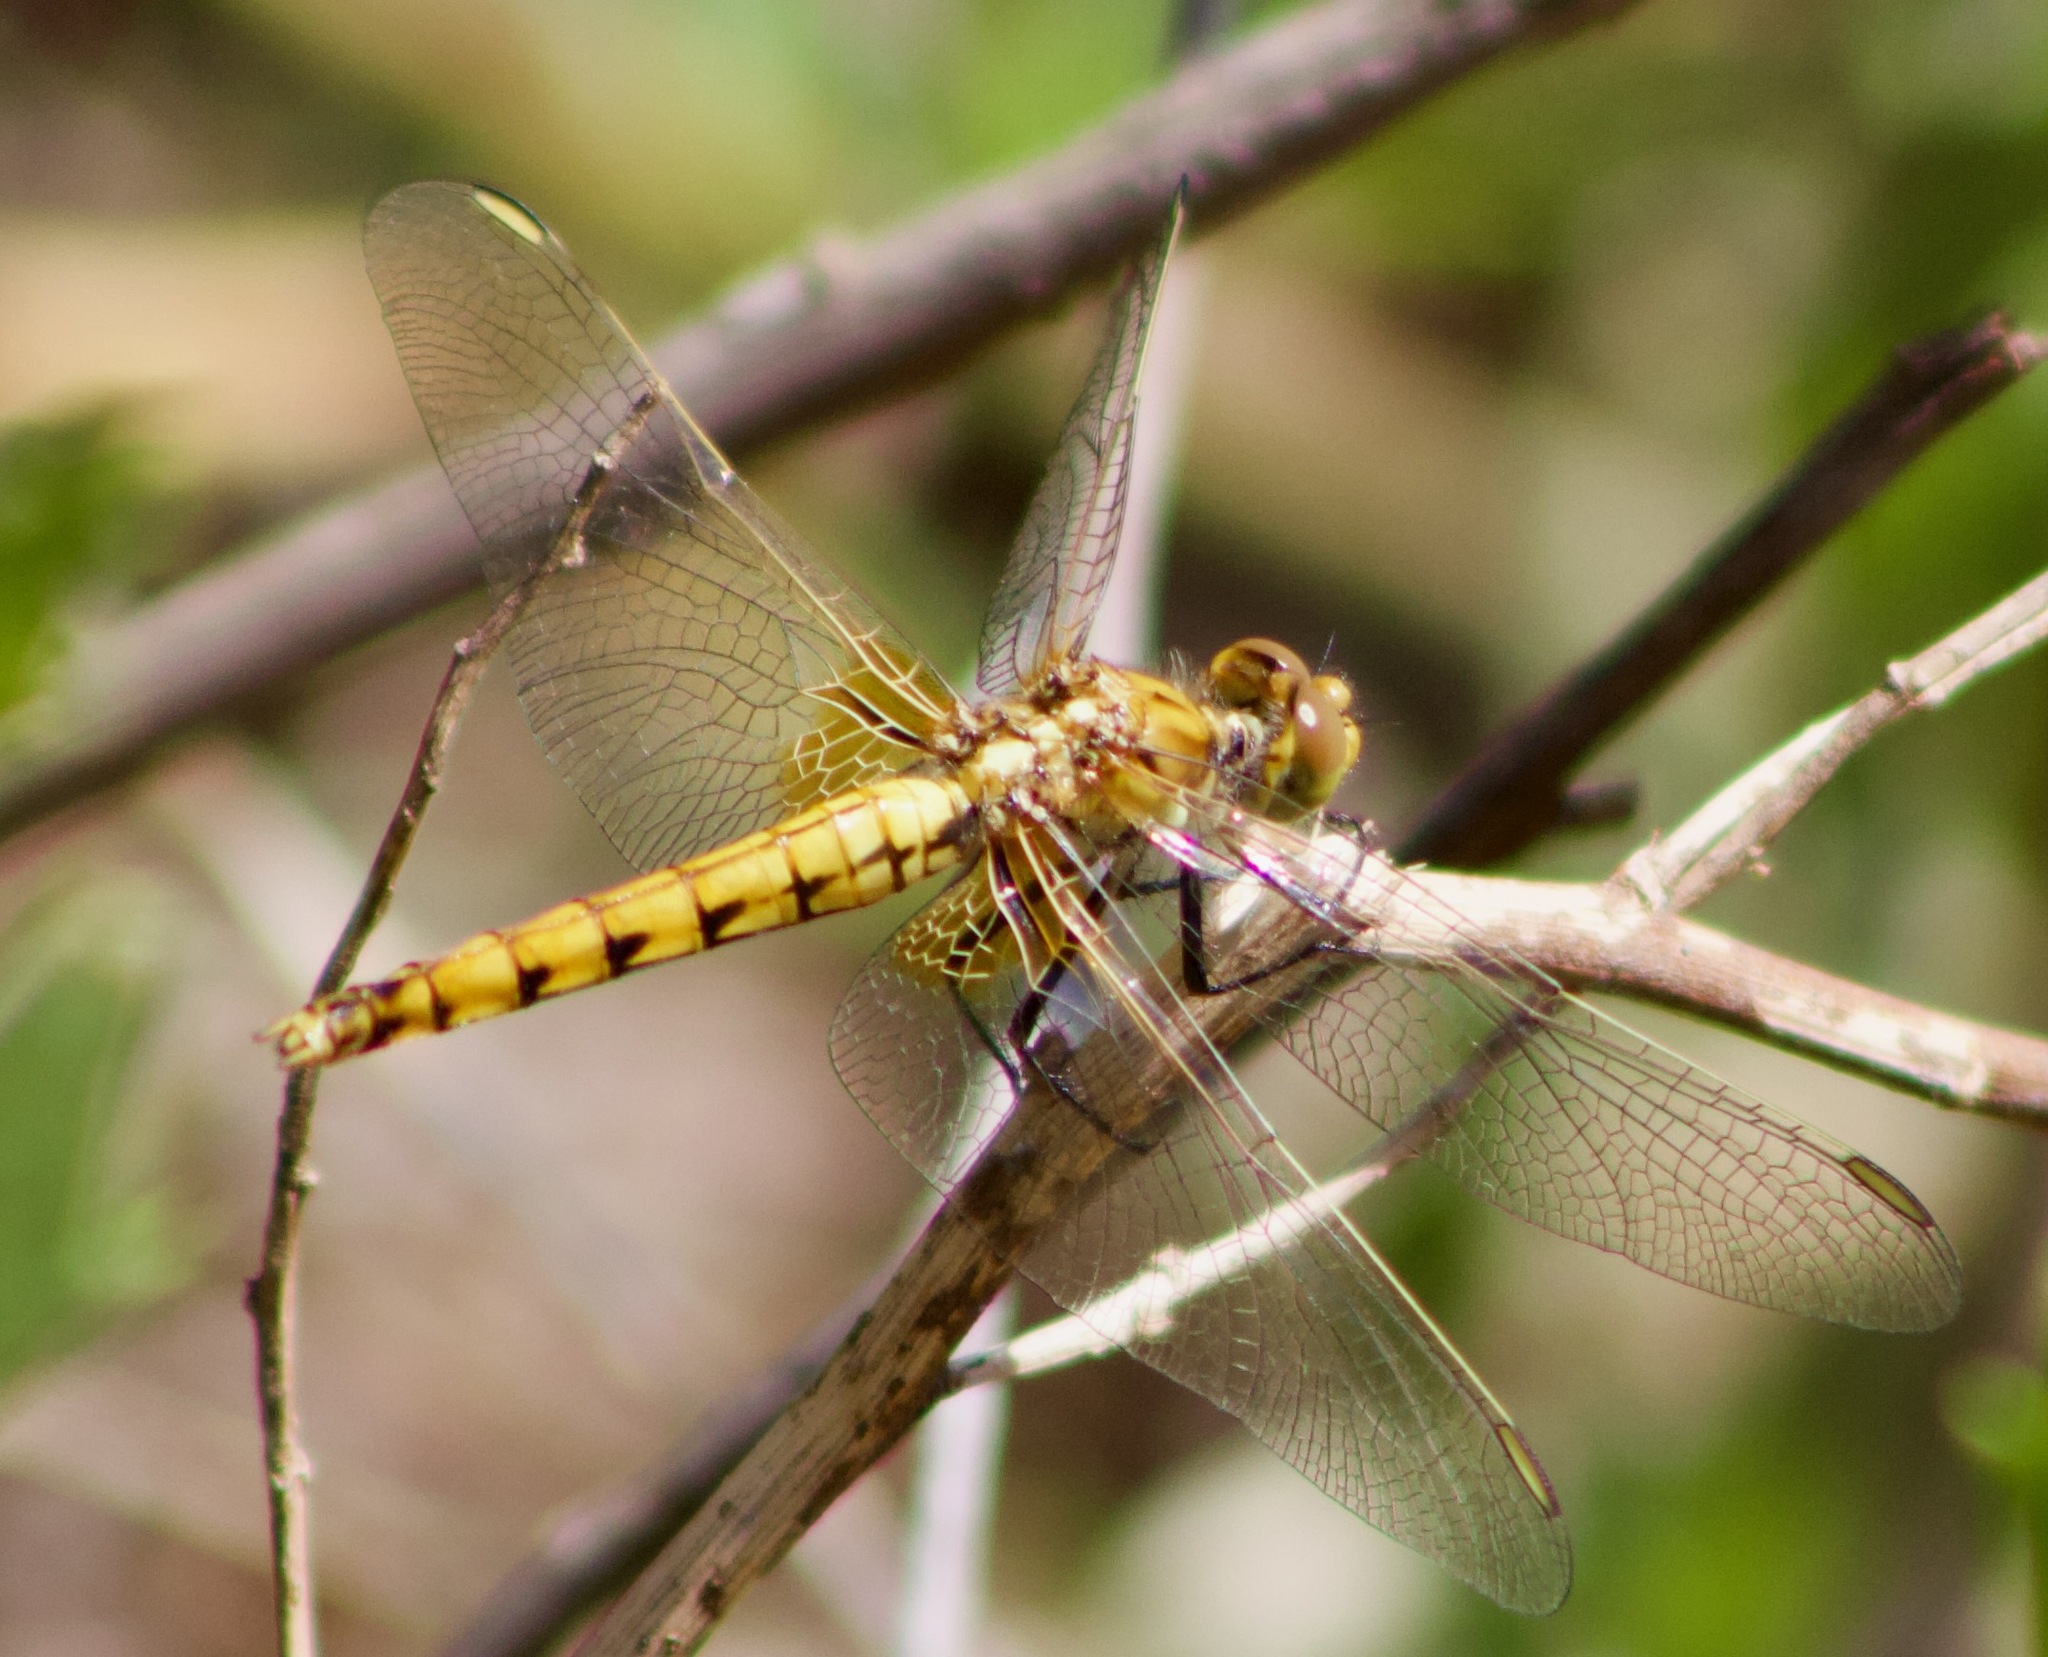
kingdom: Animalia
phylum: Arthropoda
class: Insecta
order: Odonata
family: Libellulidae
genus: Erythrodiplax
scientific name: Erythrodiplax corallina
